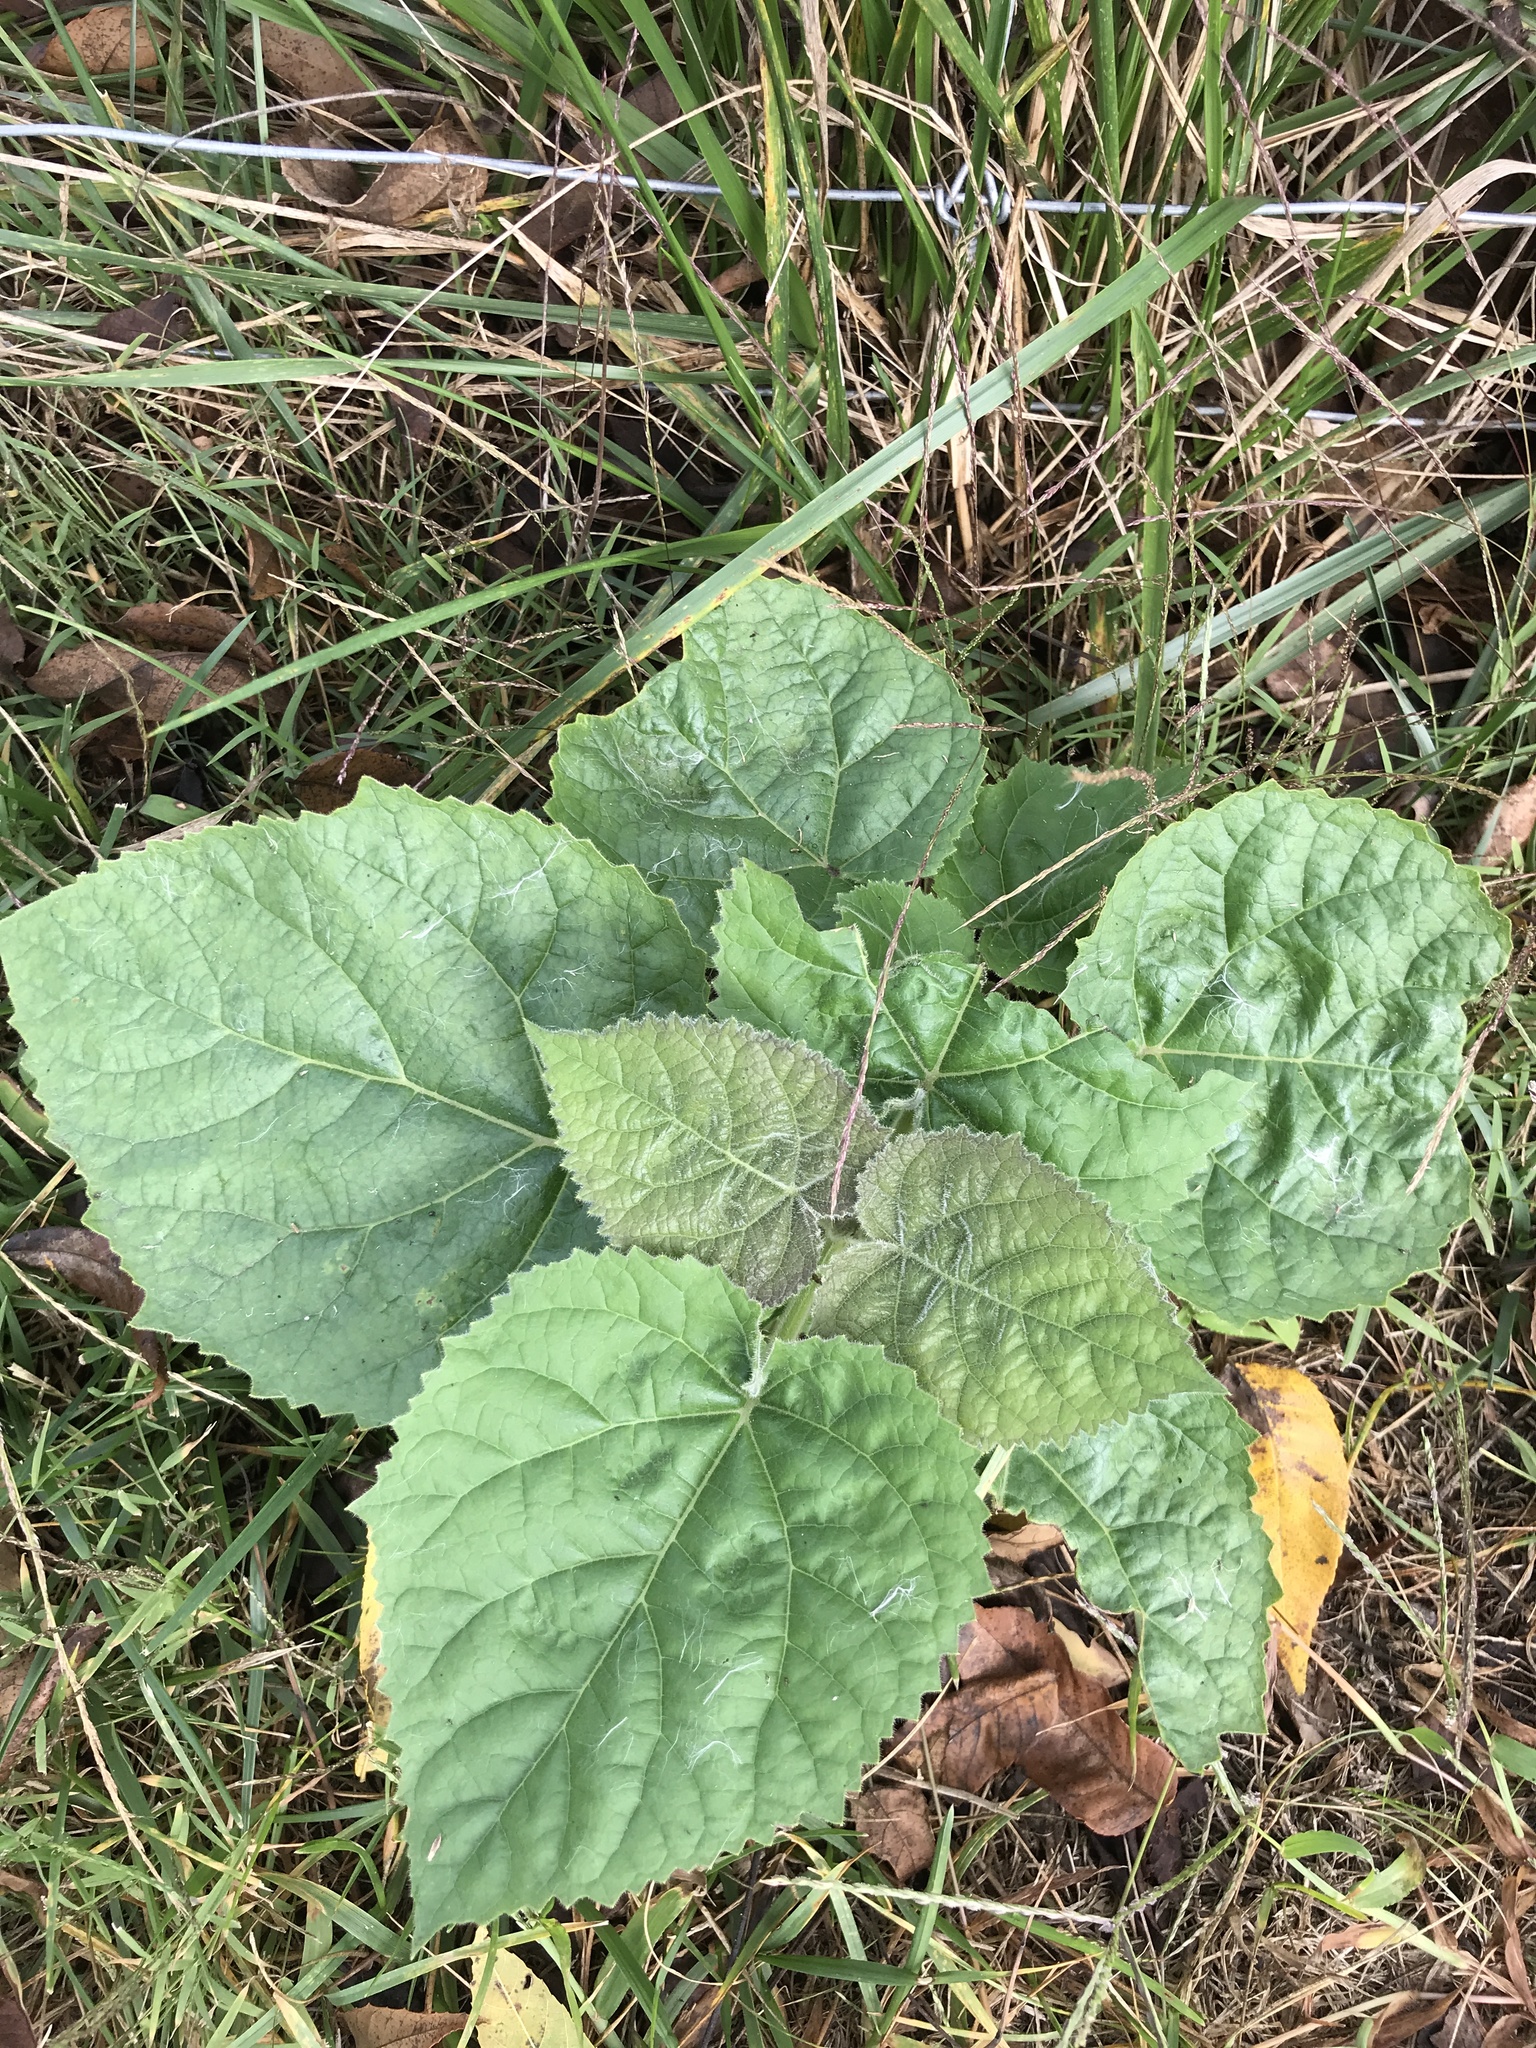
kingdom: Plantae
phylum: Tracheophyta
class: Magnoliopsida
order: Lamiales
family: Paulowniaceae
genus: Paulownia
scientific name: Paulownia tomentosa
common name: Foxglove-tree
